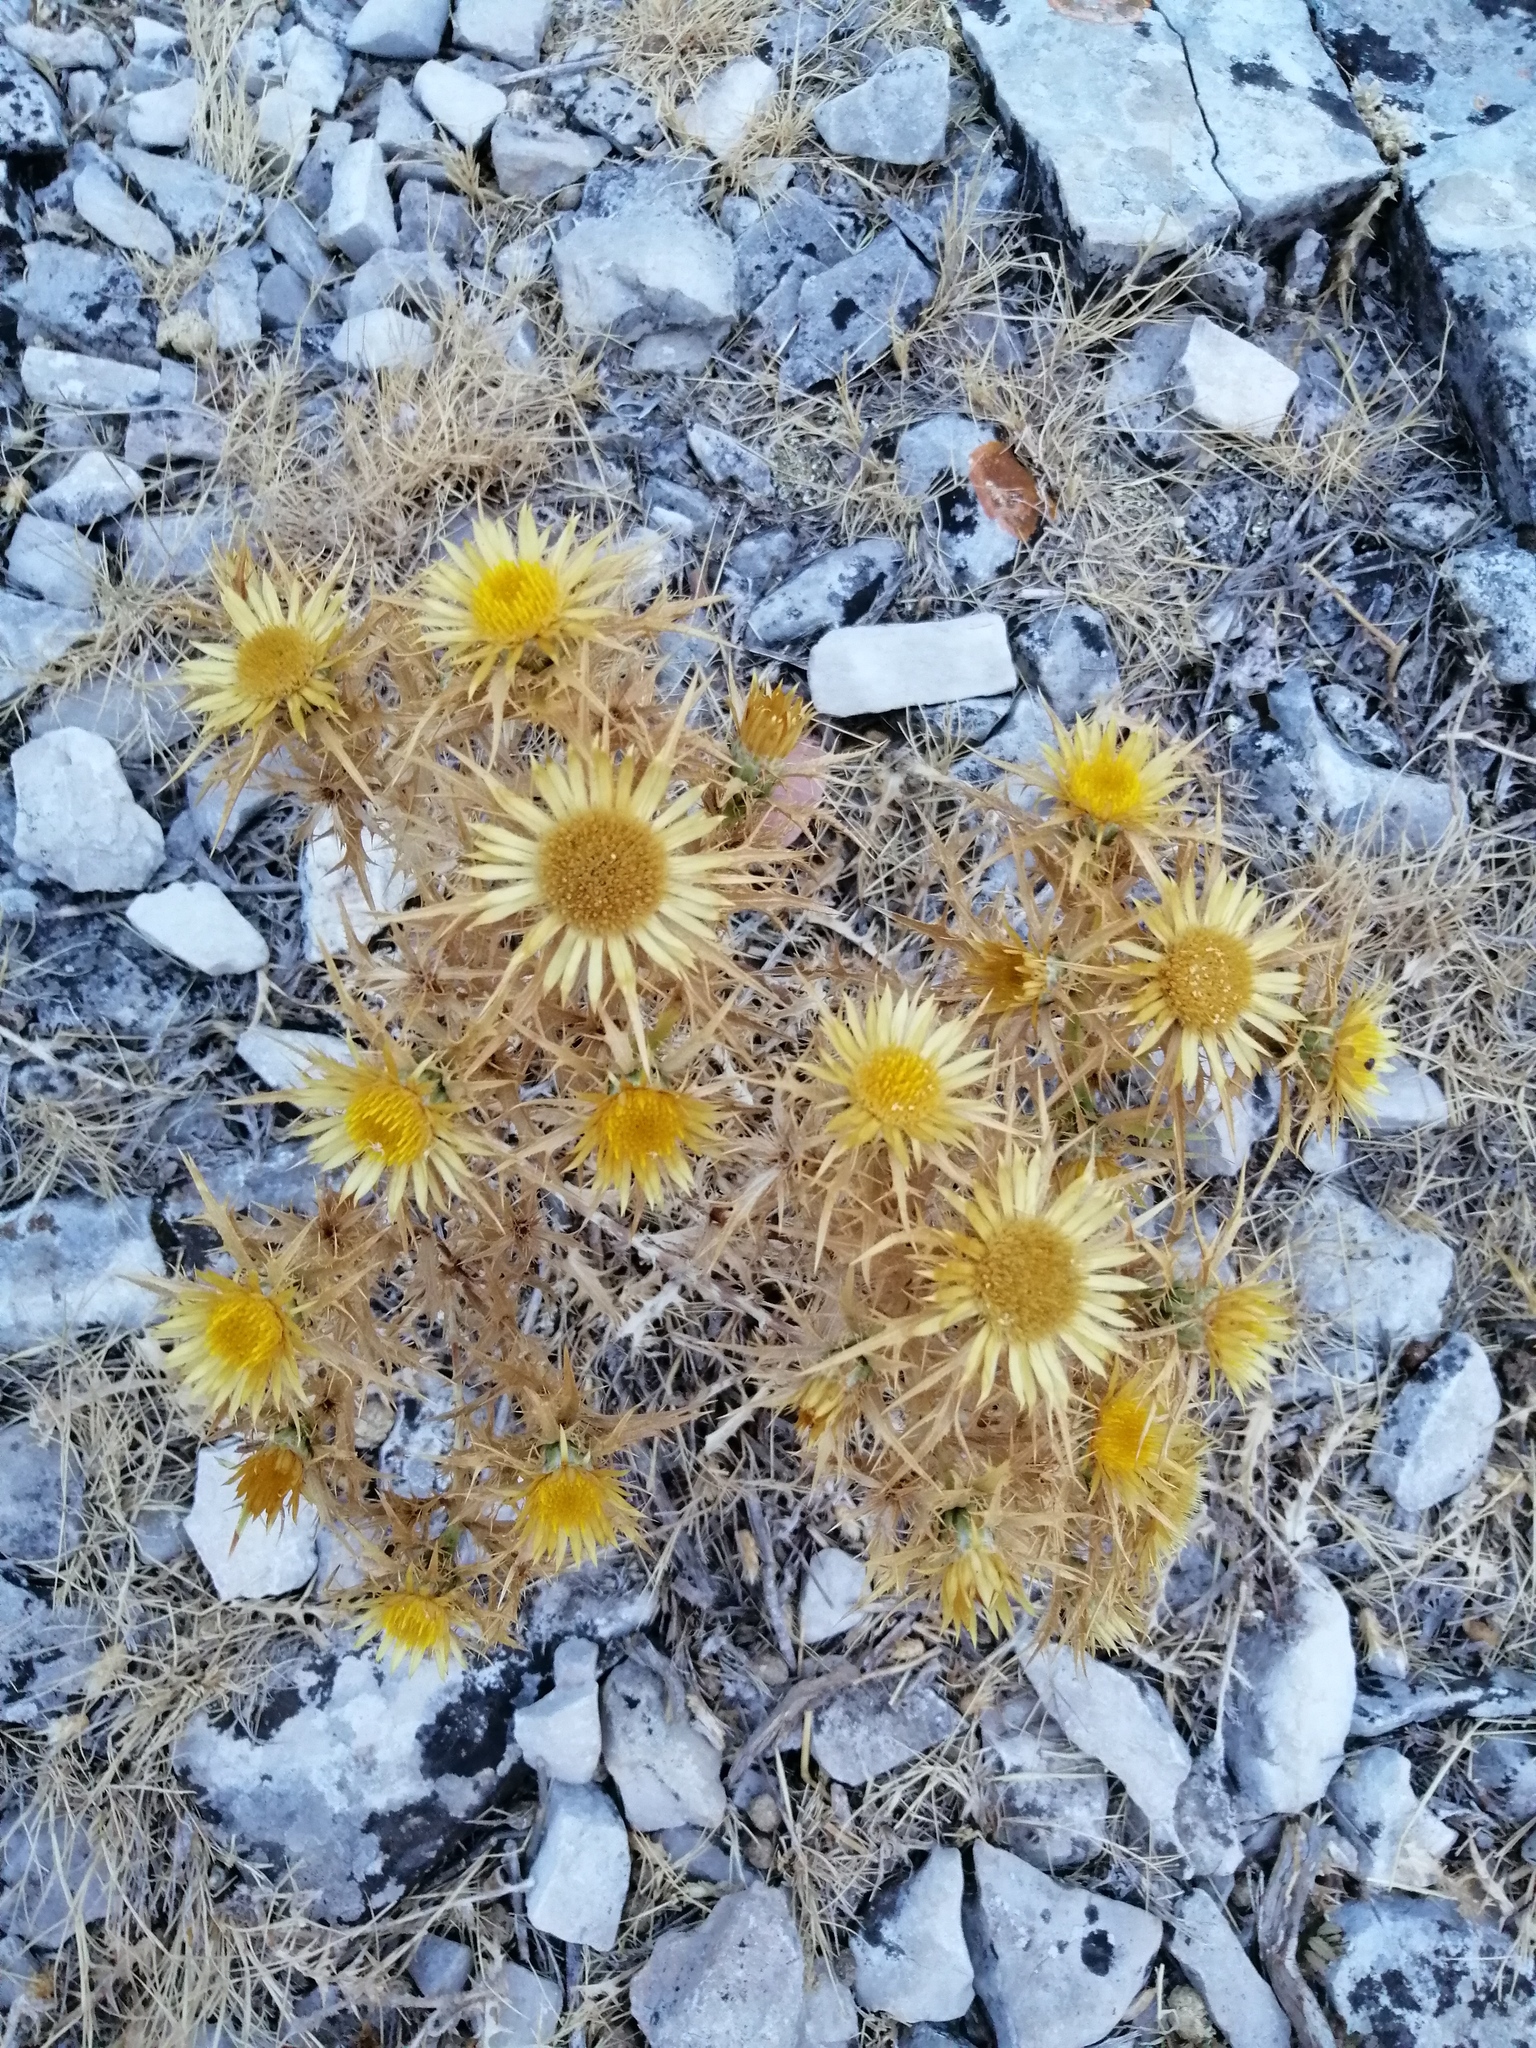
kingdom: Plantae
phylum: Tracheophyta
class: Magnoliopsida
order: Asterales
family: Asteraceae
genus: Carlina
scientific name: Carlina corymbosa
